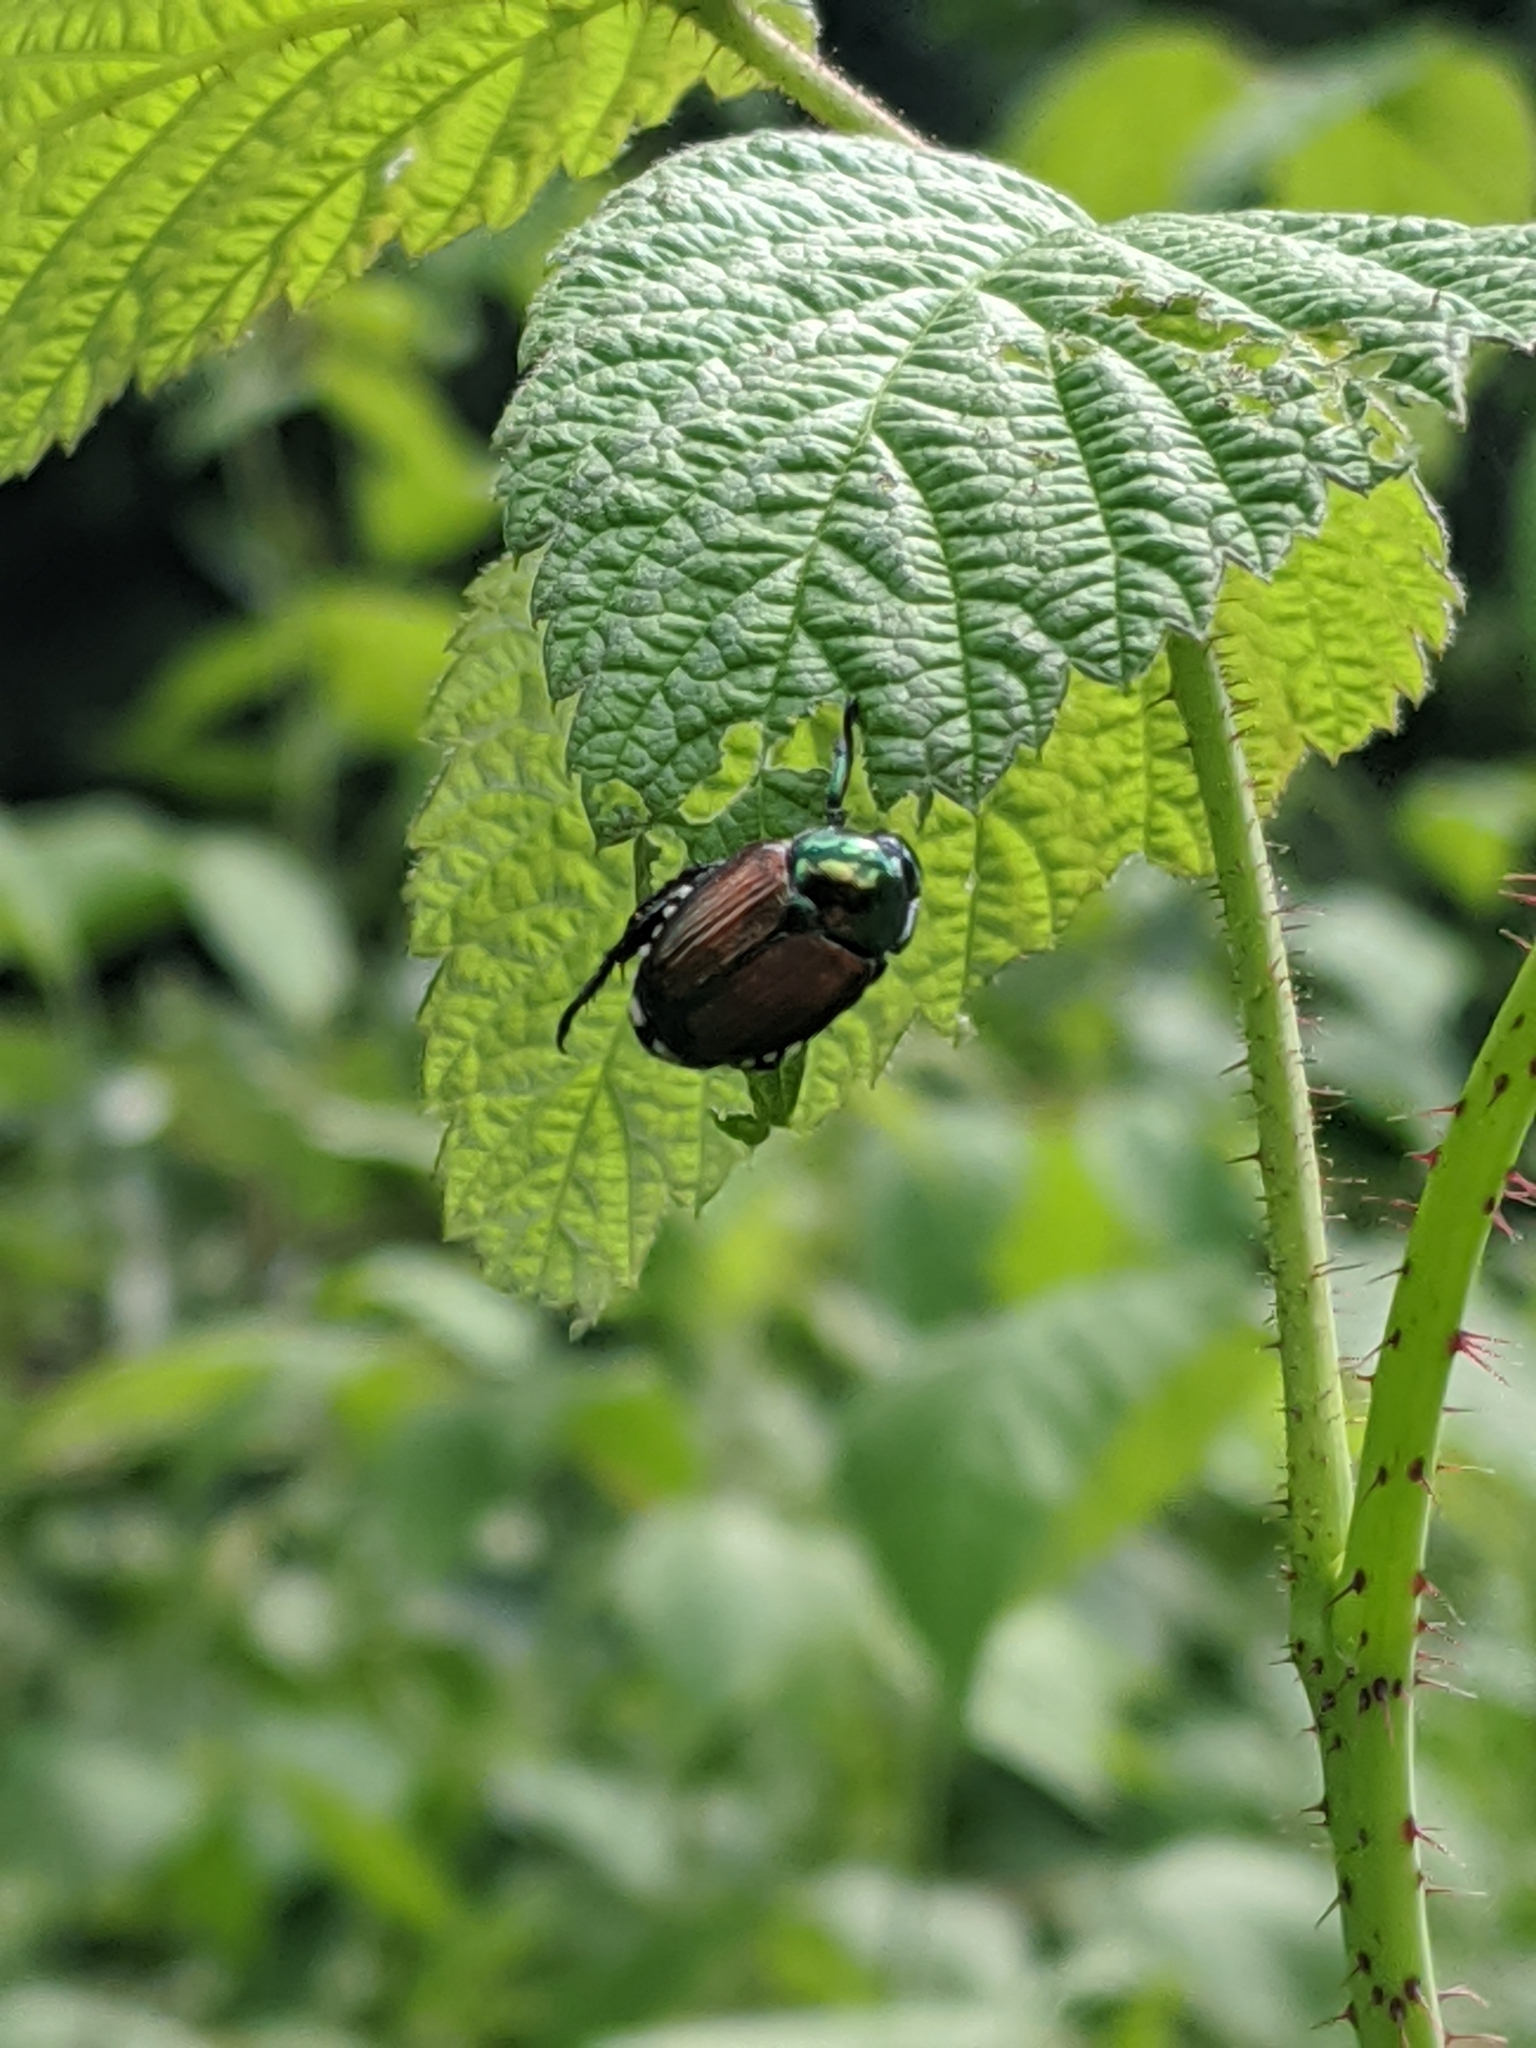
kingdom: Animalia
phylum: Arthropoda
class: Insecta
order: Coleoptera
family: Scarabaeidae
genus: Popillia
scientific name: Popillia japonica
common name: Japanese beetle
